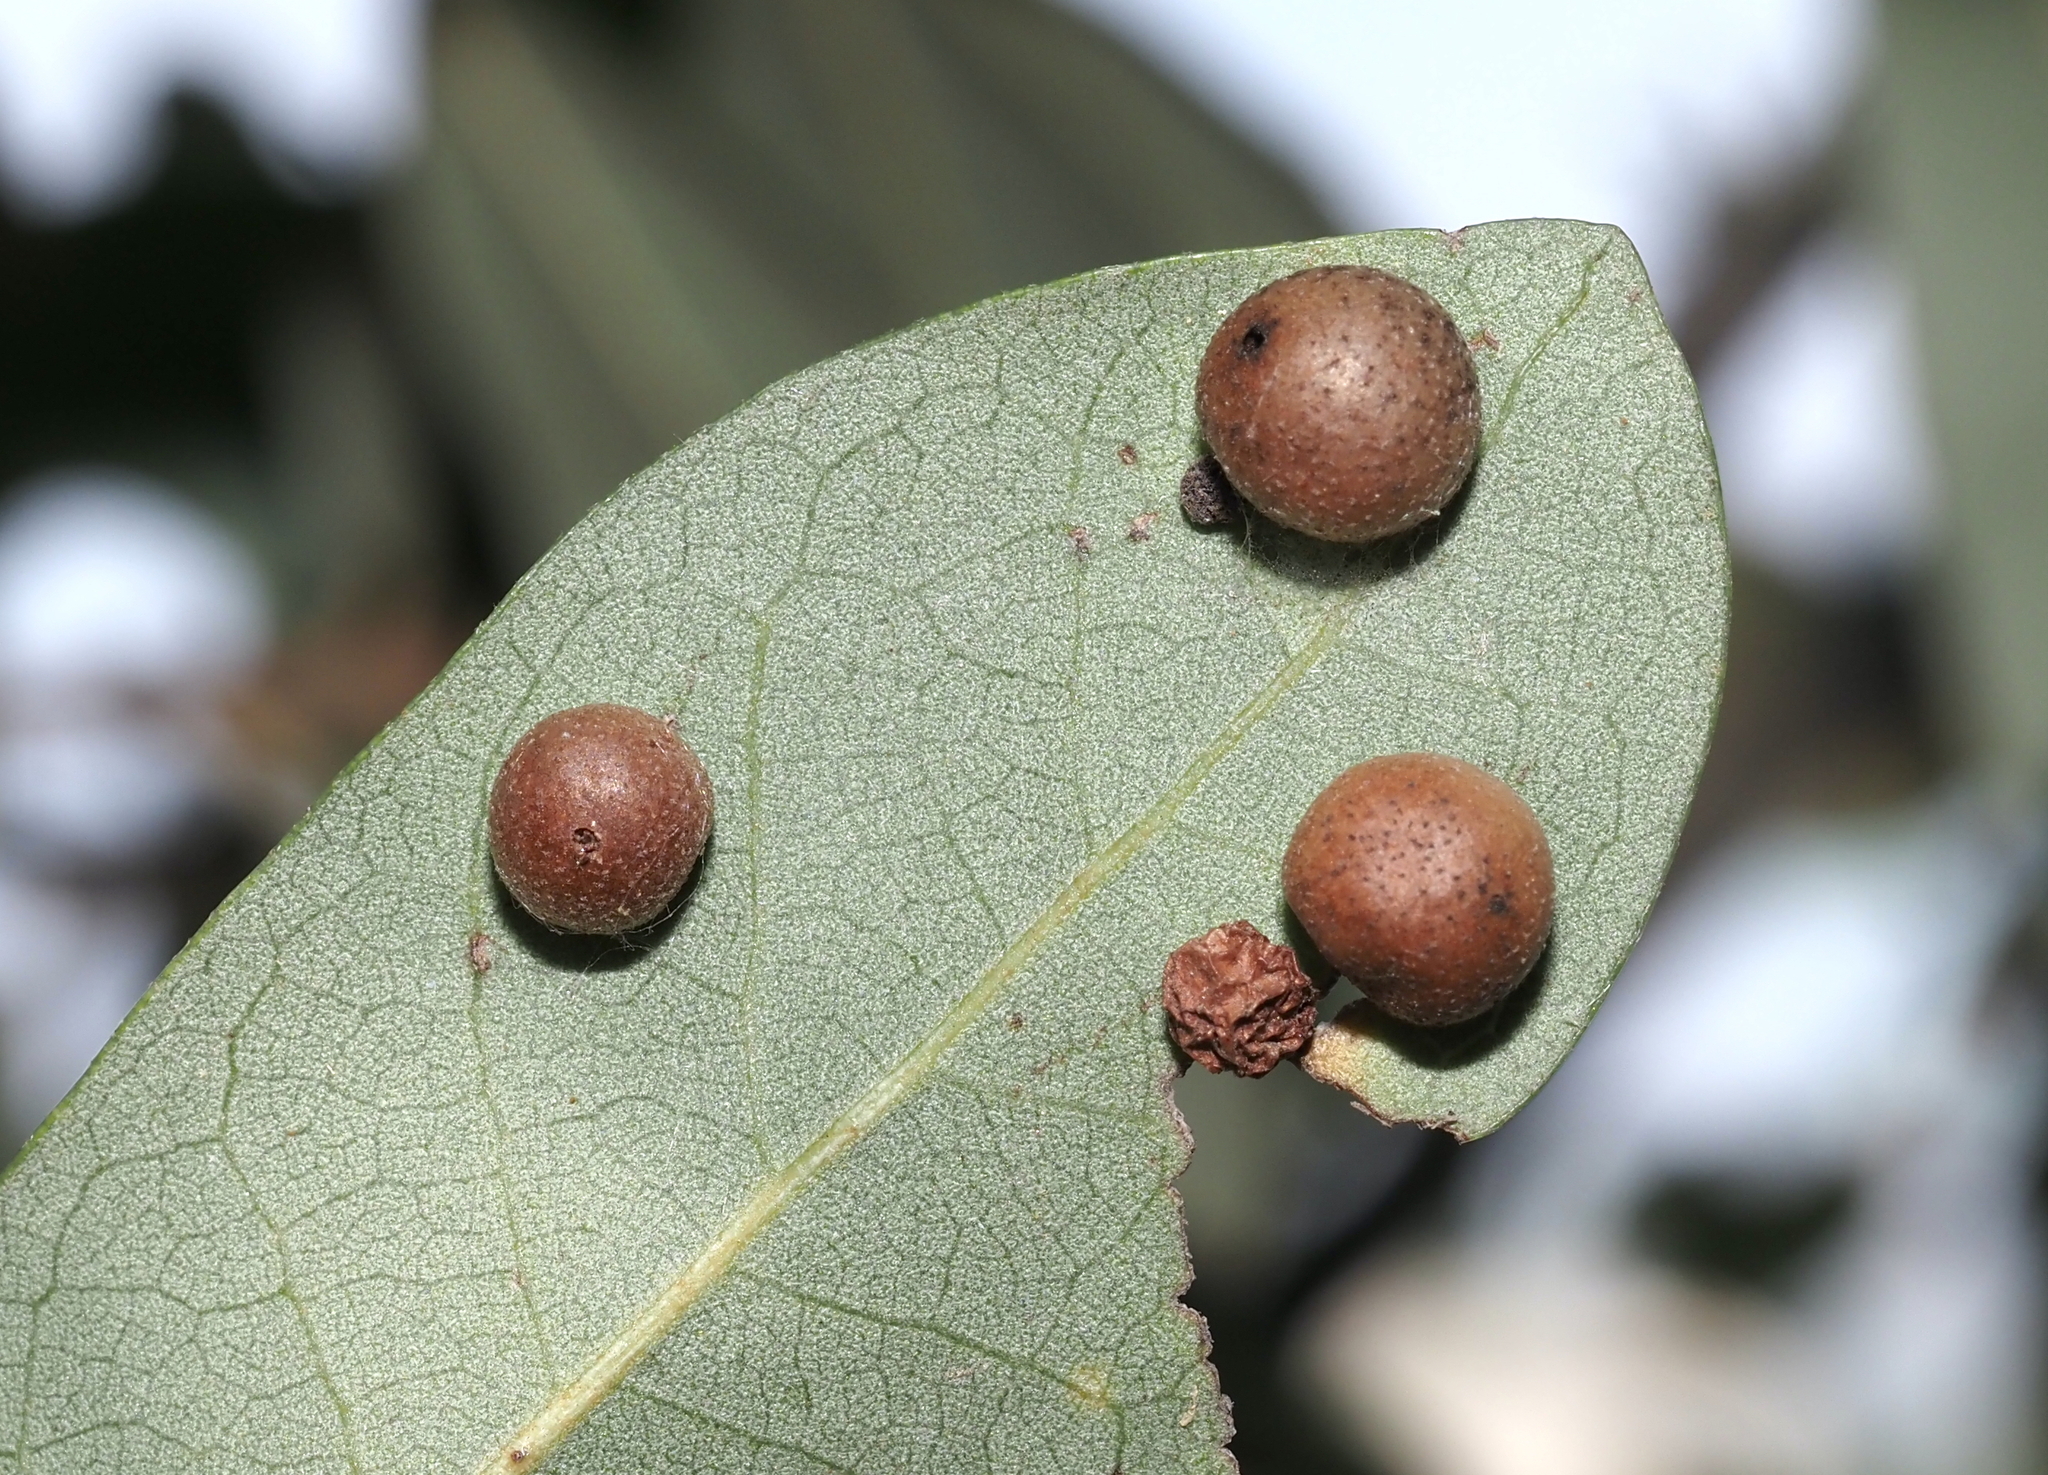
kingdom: Animalia
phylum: Arthropoda
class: Insecta
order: Hymenoptera
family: Cynipidae
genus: Belonocnema
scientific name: Belonocnema kinseyi
